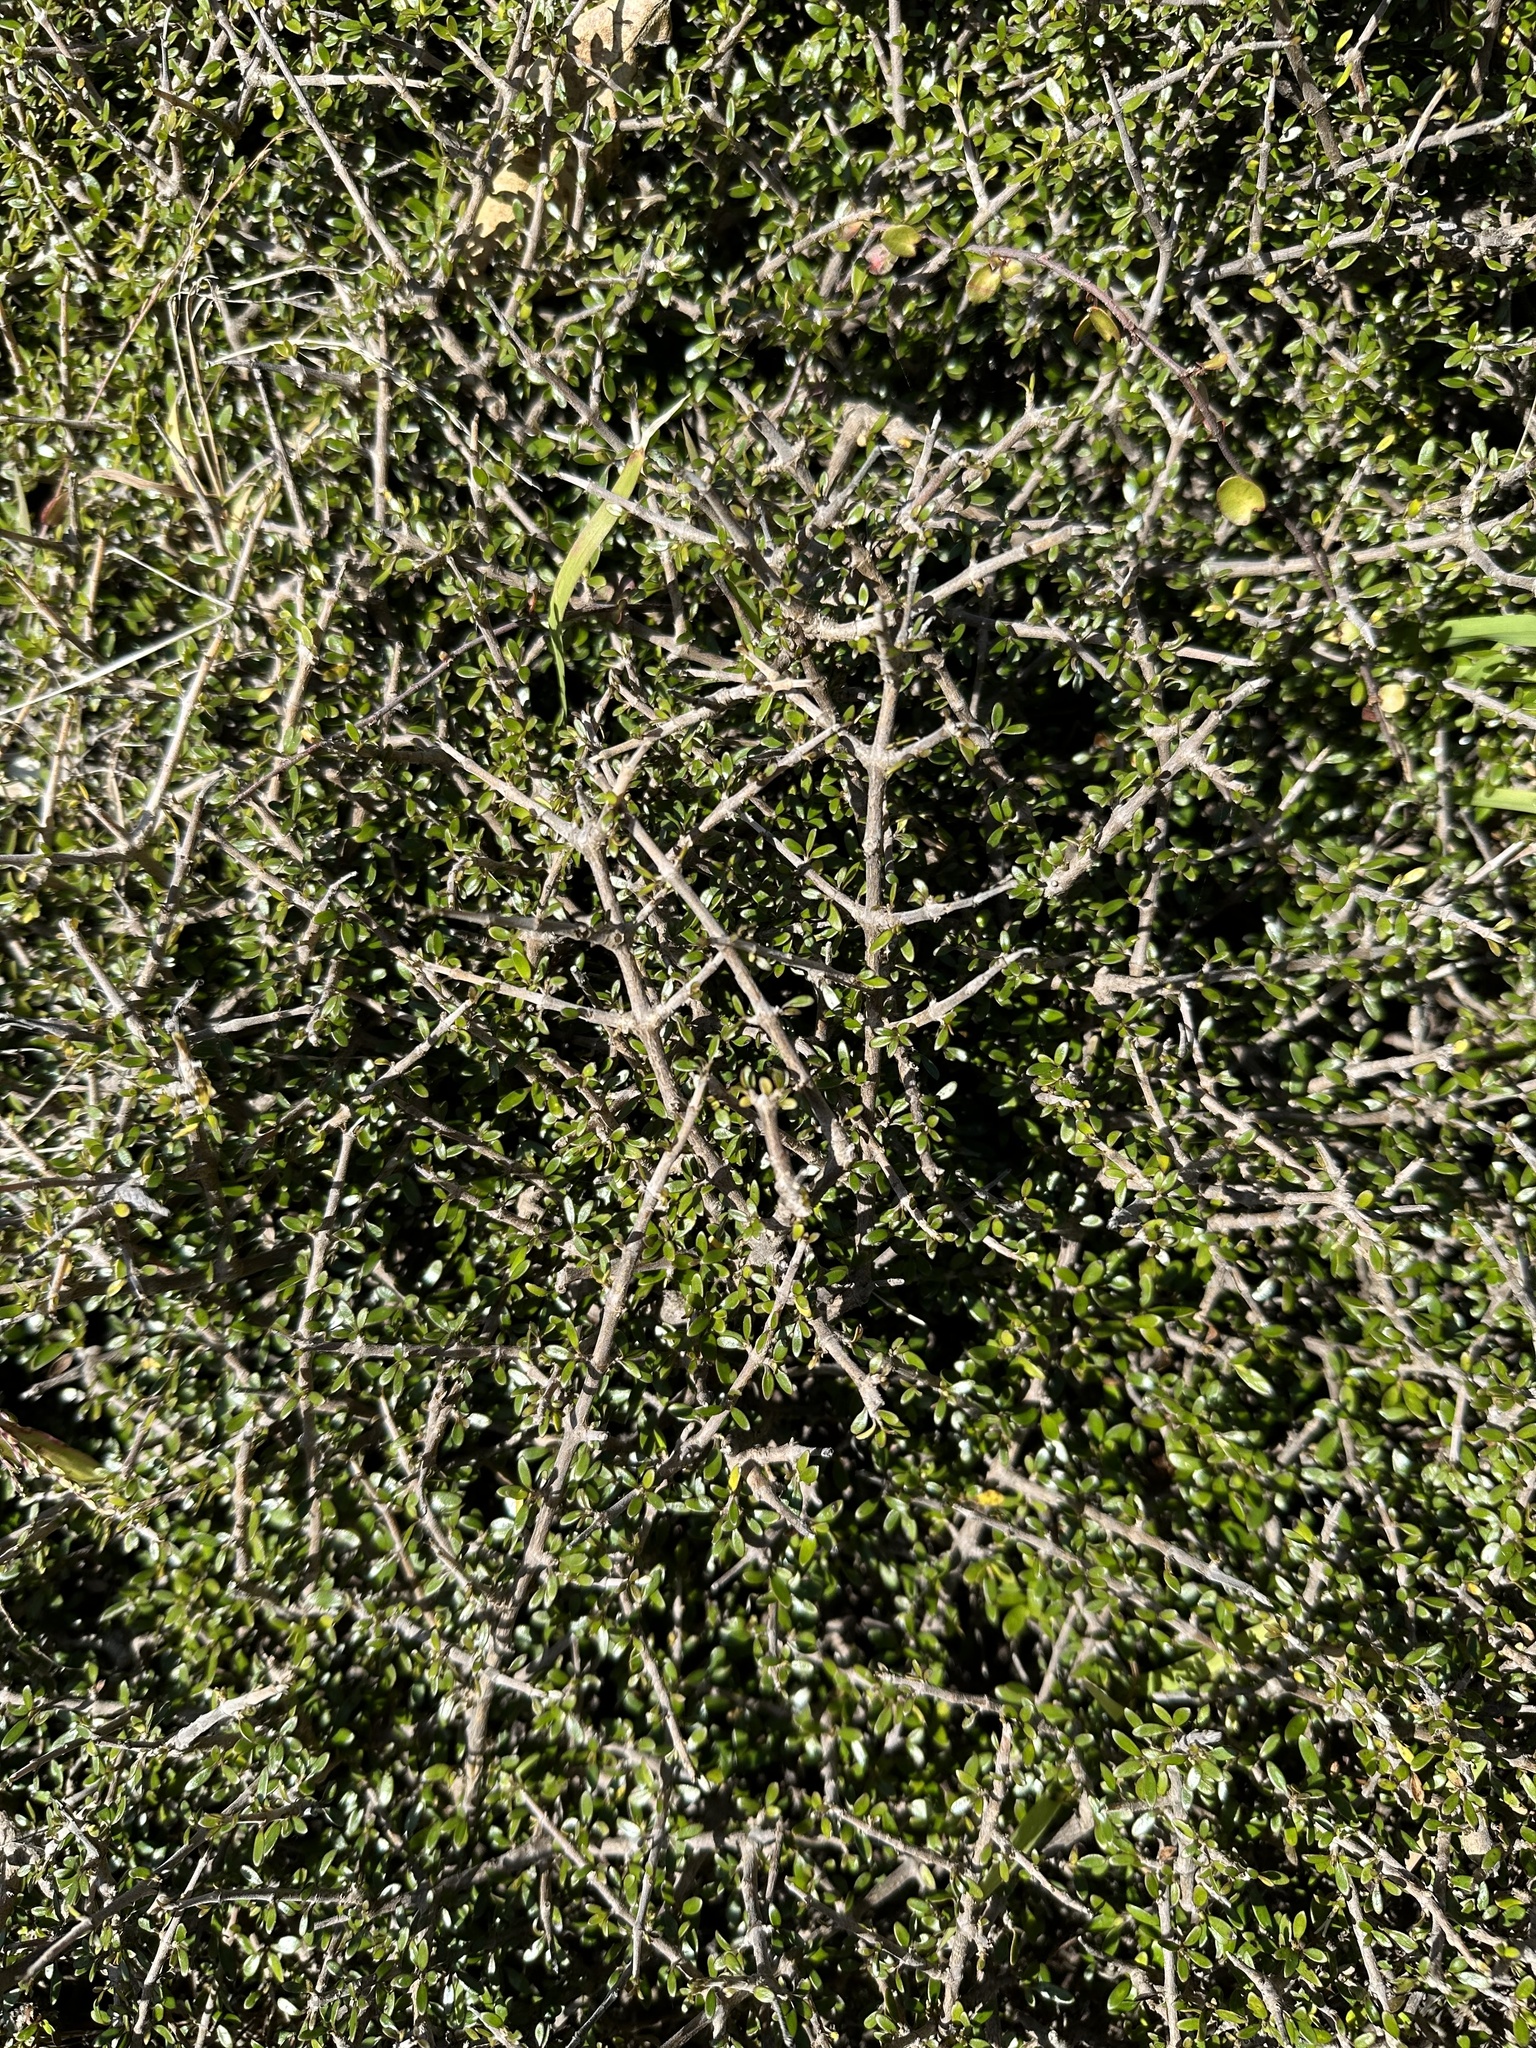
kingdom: Plantae
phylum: Tracheophyta
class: Magnoliopsida
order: Gentianales
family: Rubiaceae
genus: Coprosma
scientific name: Coprosma propinqua
